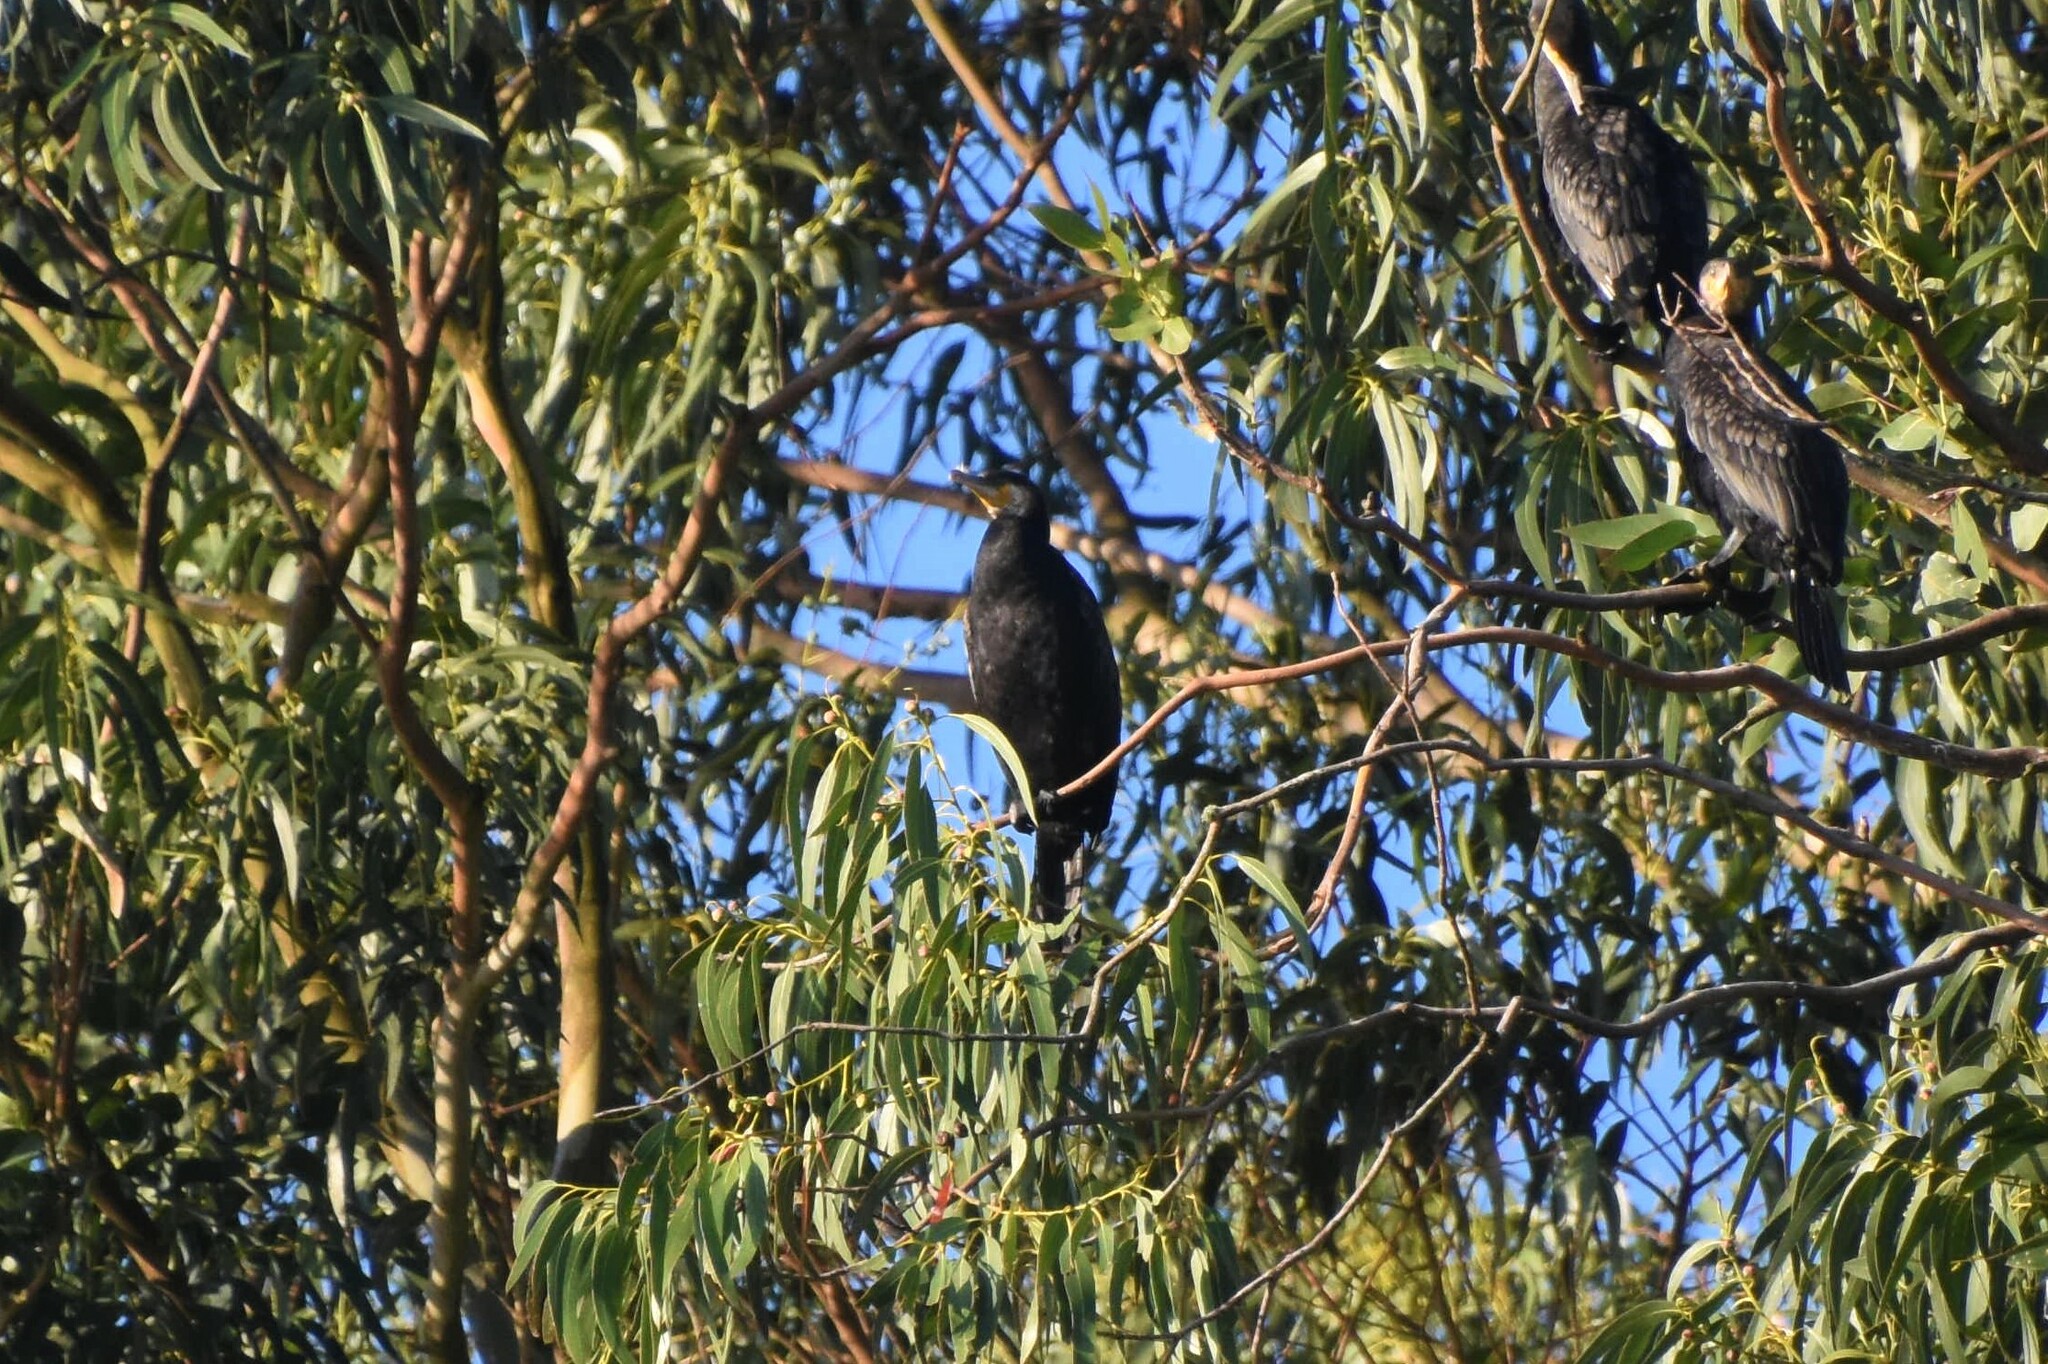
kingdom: Animalia
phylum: Chordata
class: Aves
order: Suliformes
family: Phalacrocoracidae
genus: Phalacrocorax
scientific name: Phalacrocorax carbo
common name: Great cormorant
